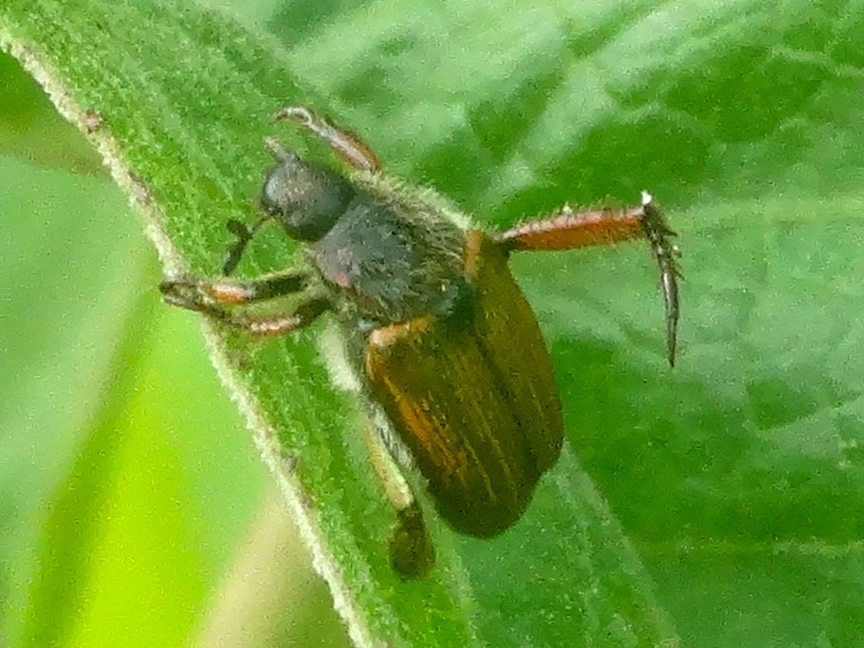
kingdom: Animalia
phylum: Arthropoda
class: Insecta
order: Coleoptera
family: Scarabaeidae
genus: Strigoderma
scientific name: Strigoderma
